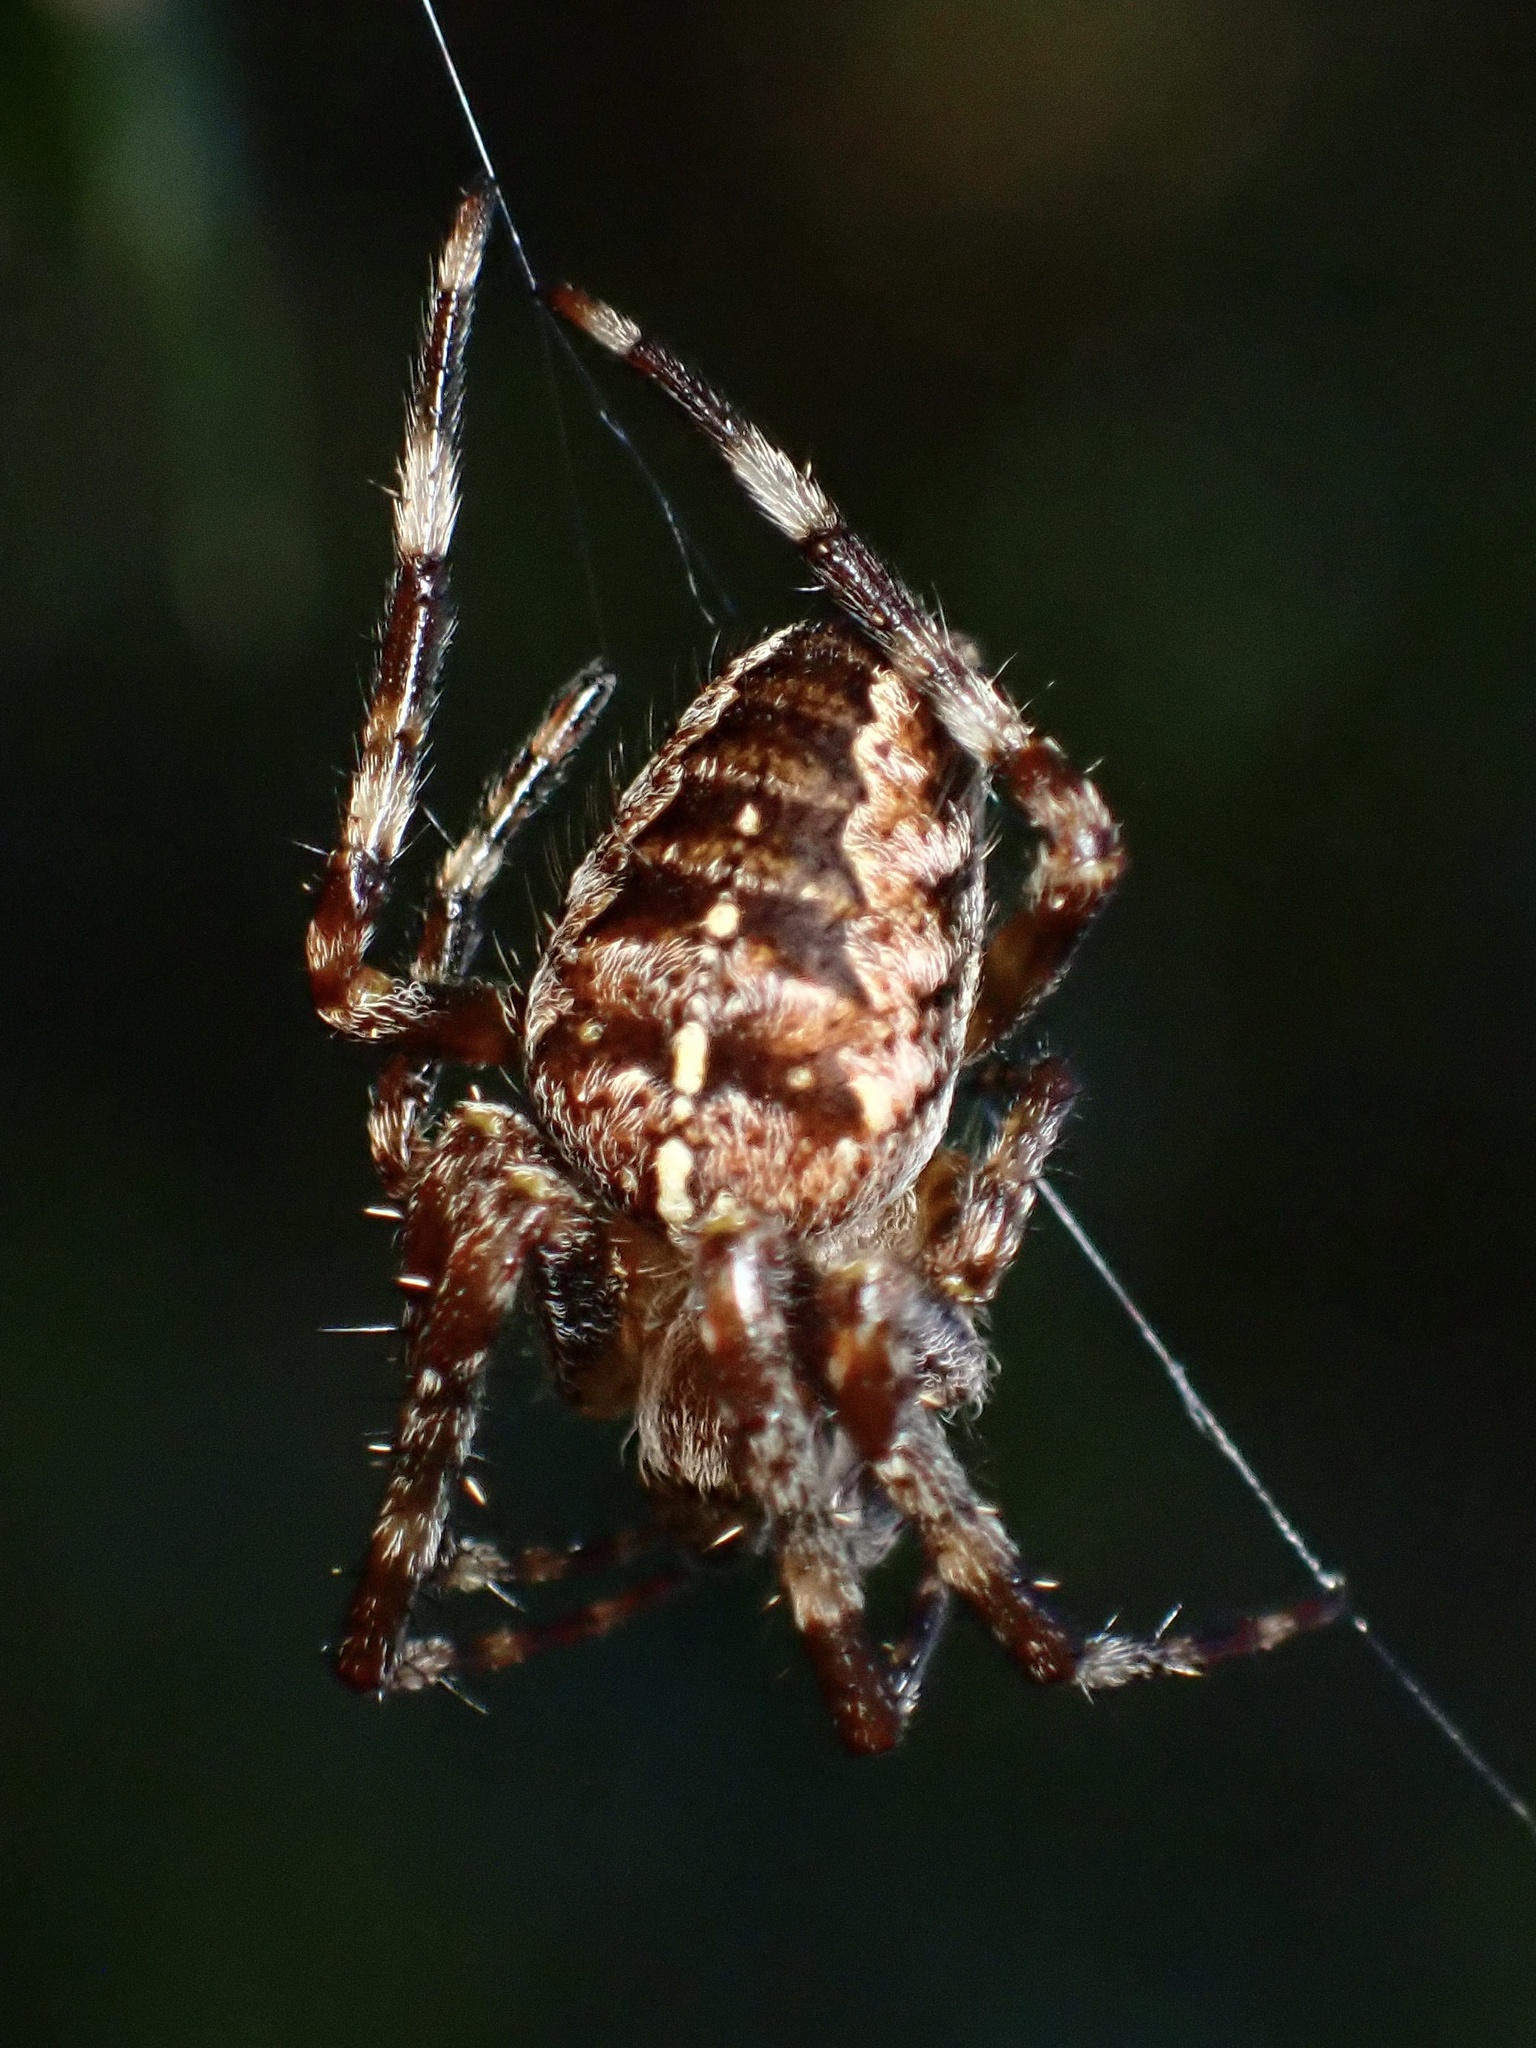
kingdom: Animalia
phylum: Arthropoda
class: Arachnida
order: Araneae
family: Araneidae
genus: Araneus
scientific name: Araneus diadematus
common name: Cross orbweaver
